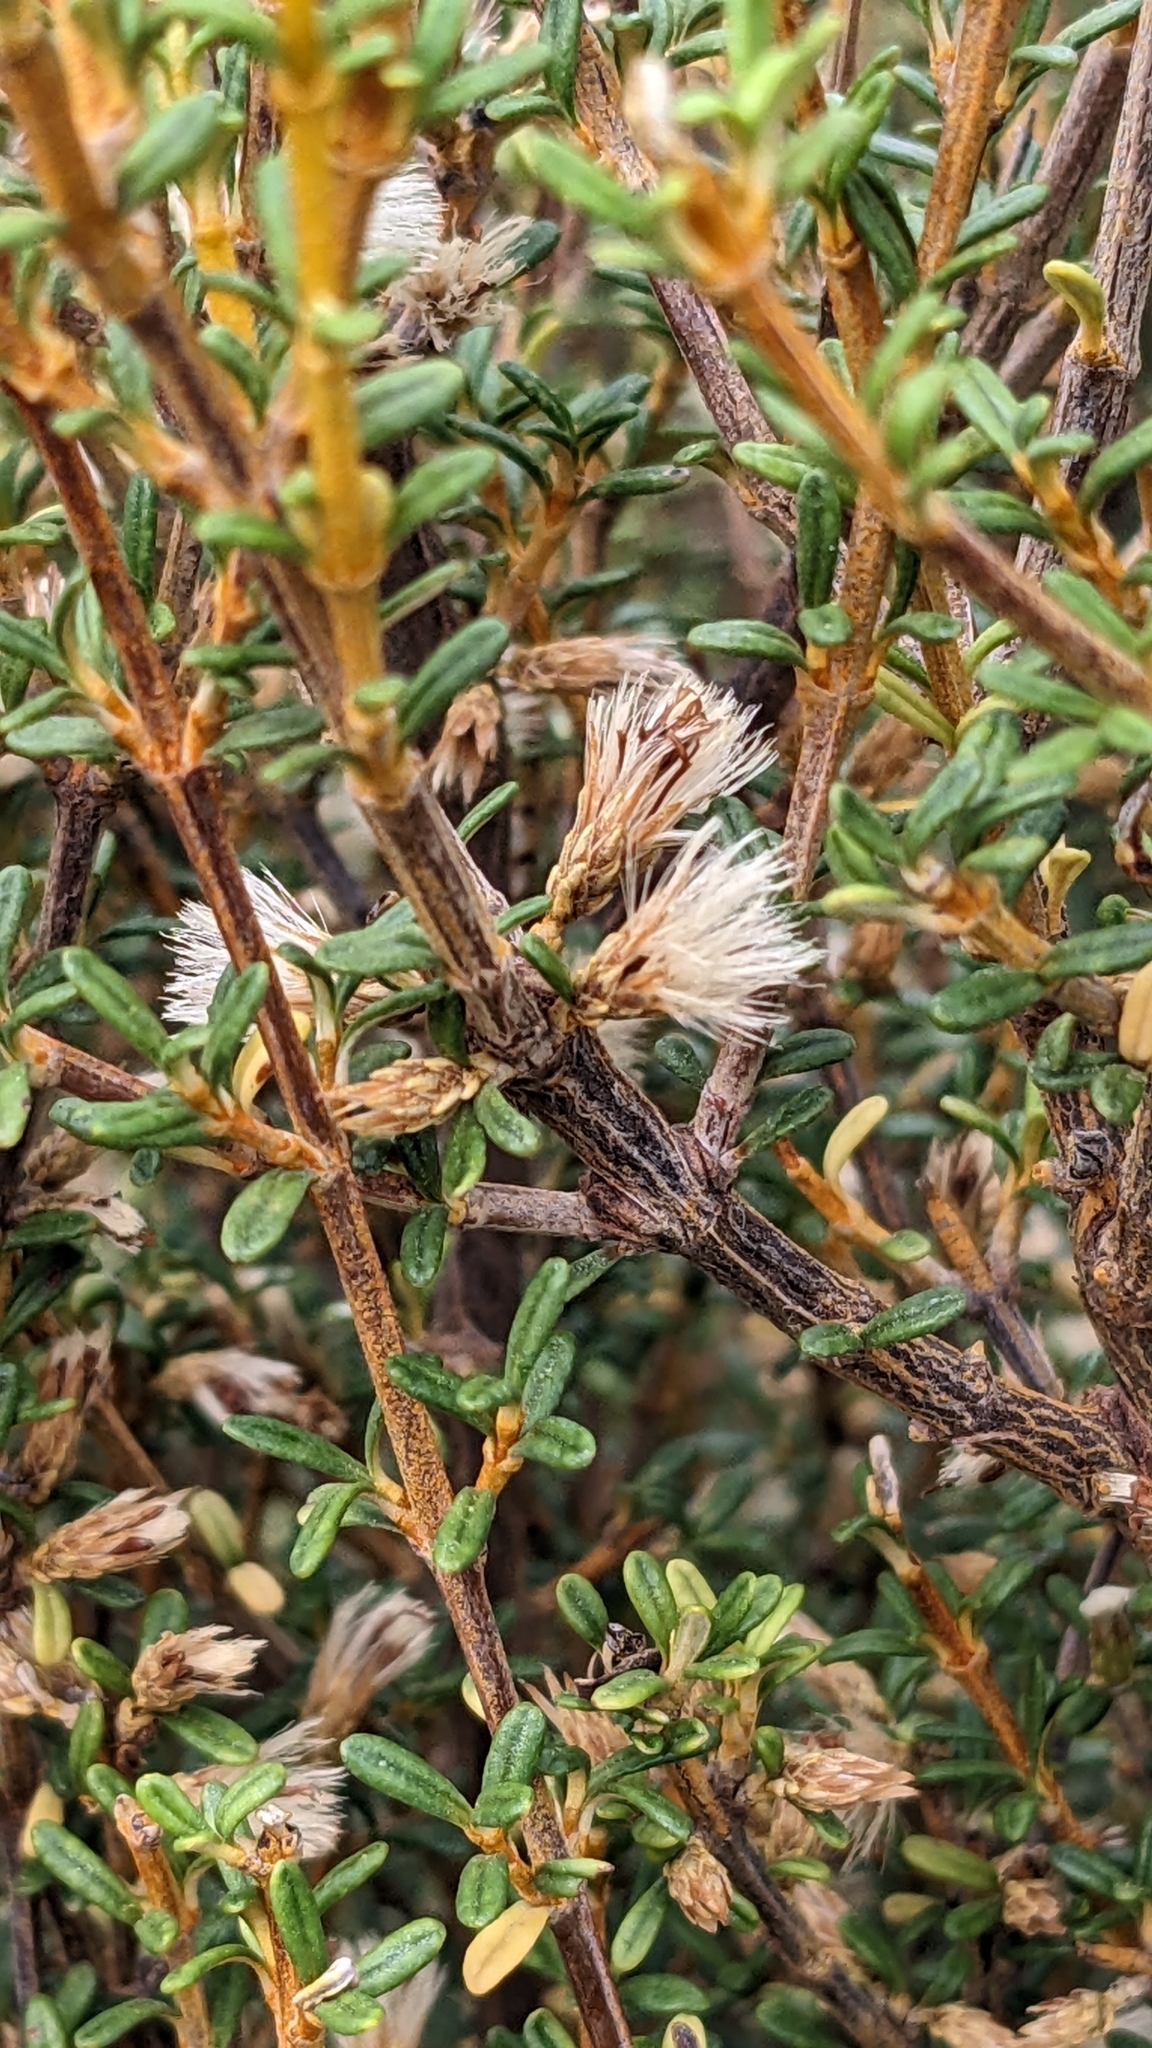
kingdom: Plantae
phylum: Tracheophyta
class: Magnoliopsida
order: Asterales
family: Asteraceae
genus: Olearia
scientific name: Olearia solandri
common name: Coastal daisybush
